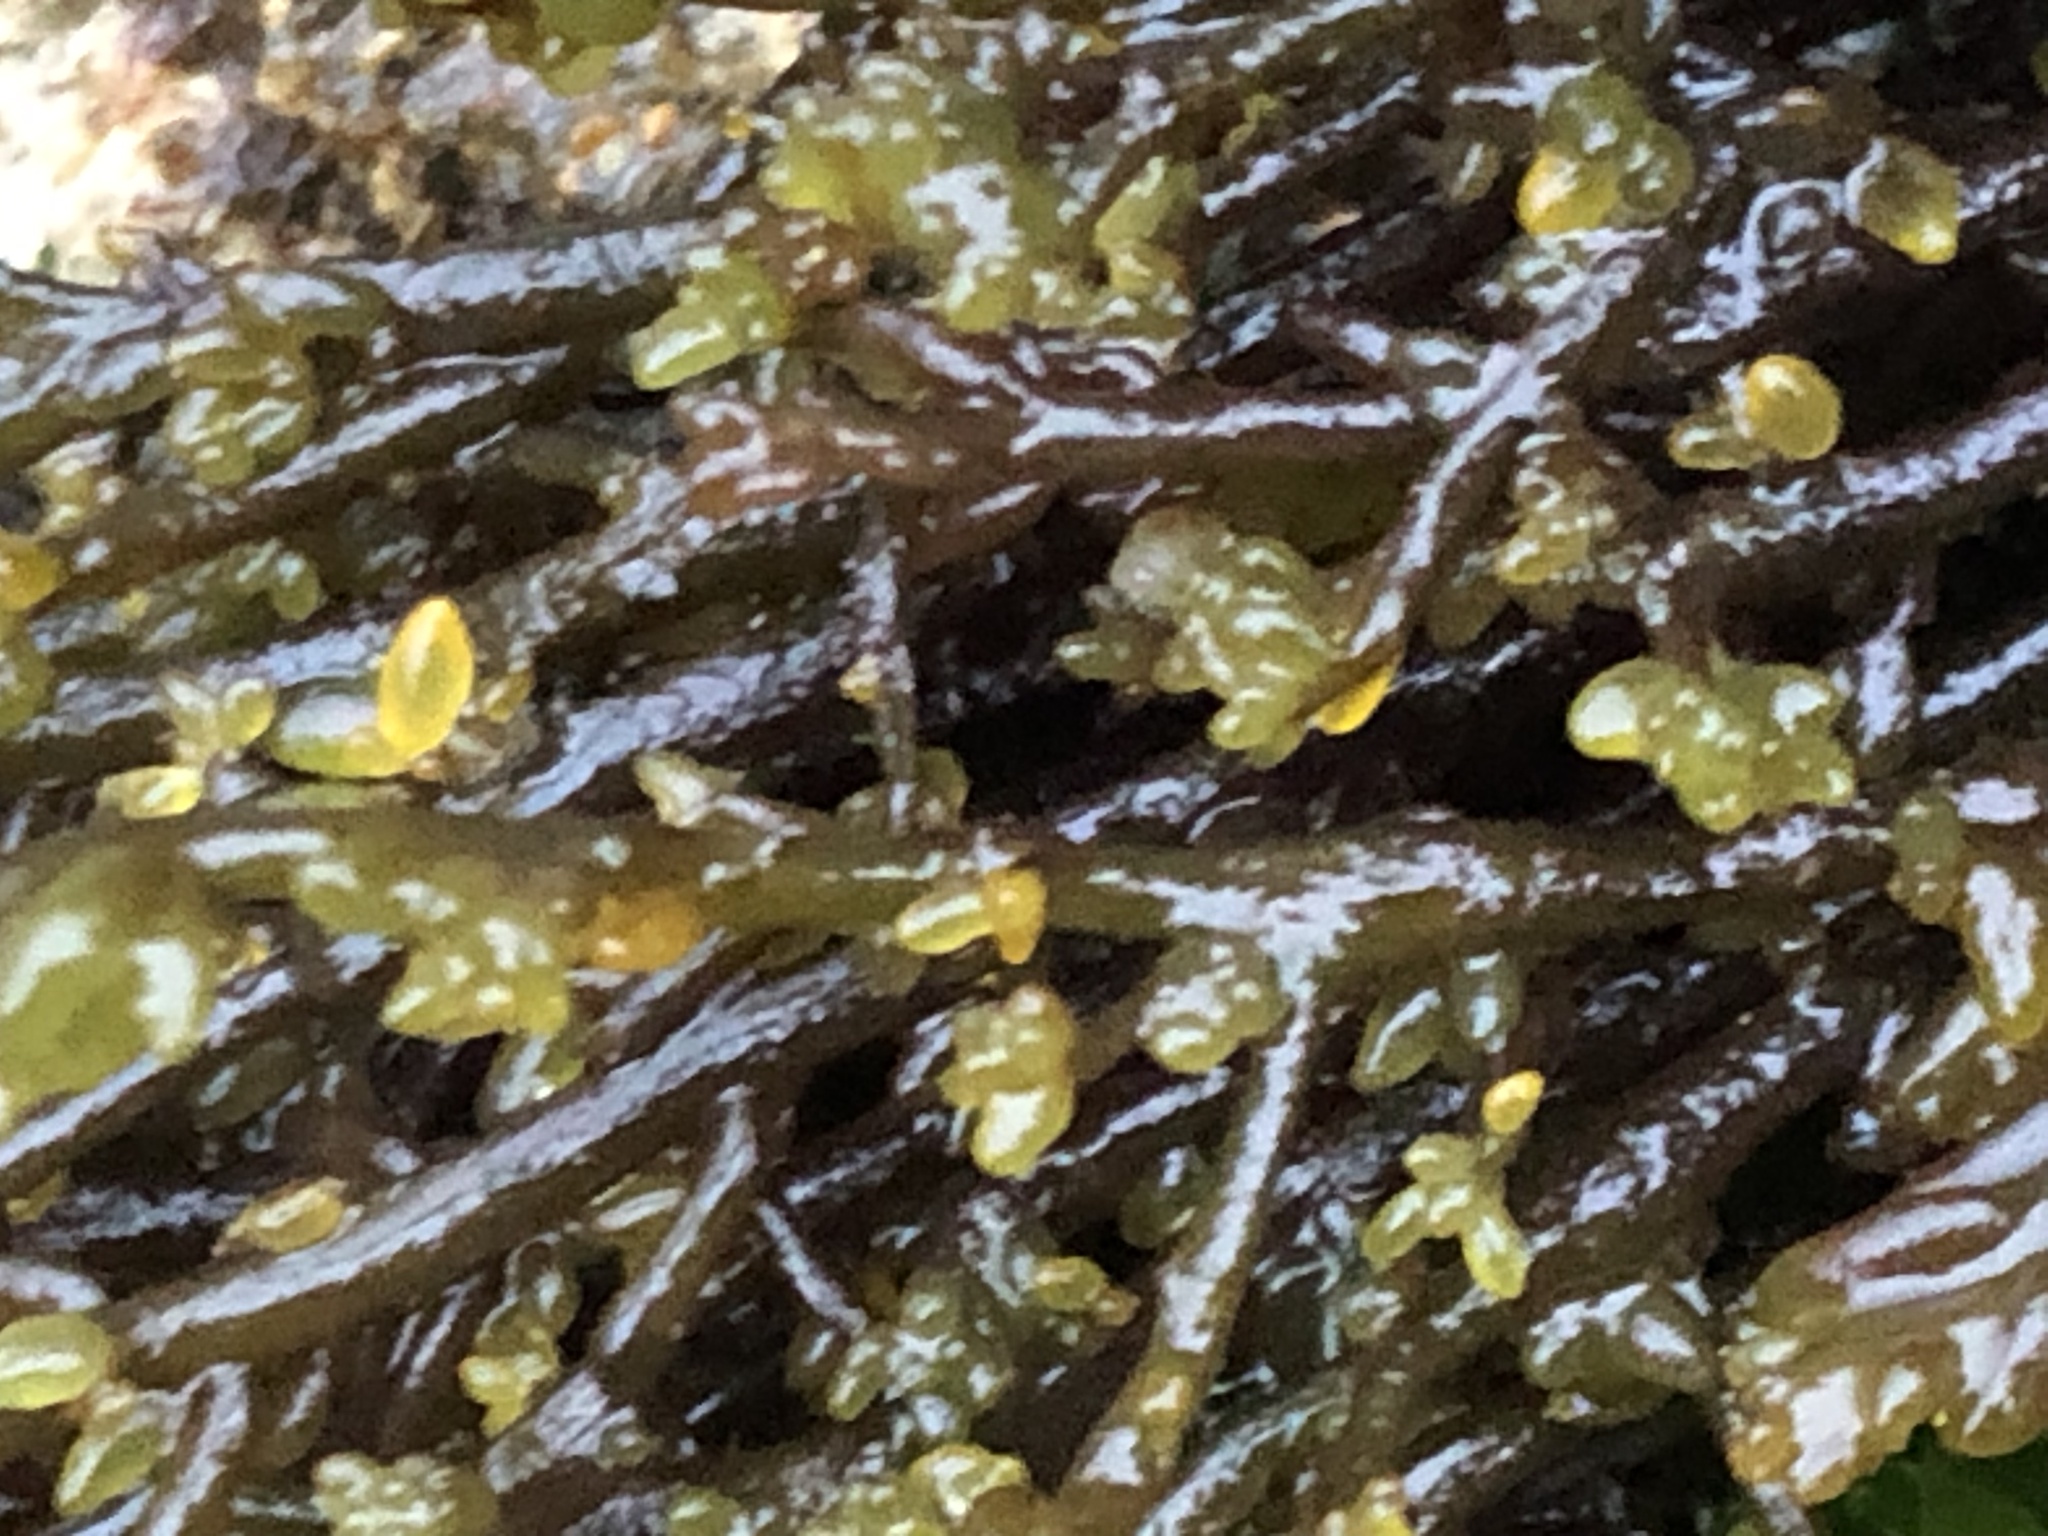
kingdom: Plantae
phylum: Rhodophyta
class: Florideophyceae
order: Rhodymeniales
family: Champiaceae
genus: Neogastroclonium
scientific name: Neogastroclonium subarticulatum
